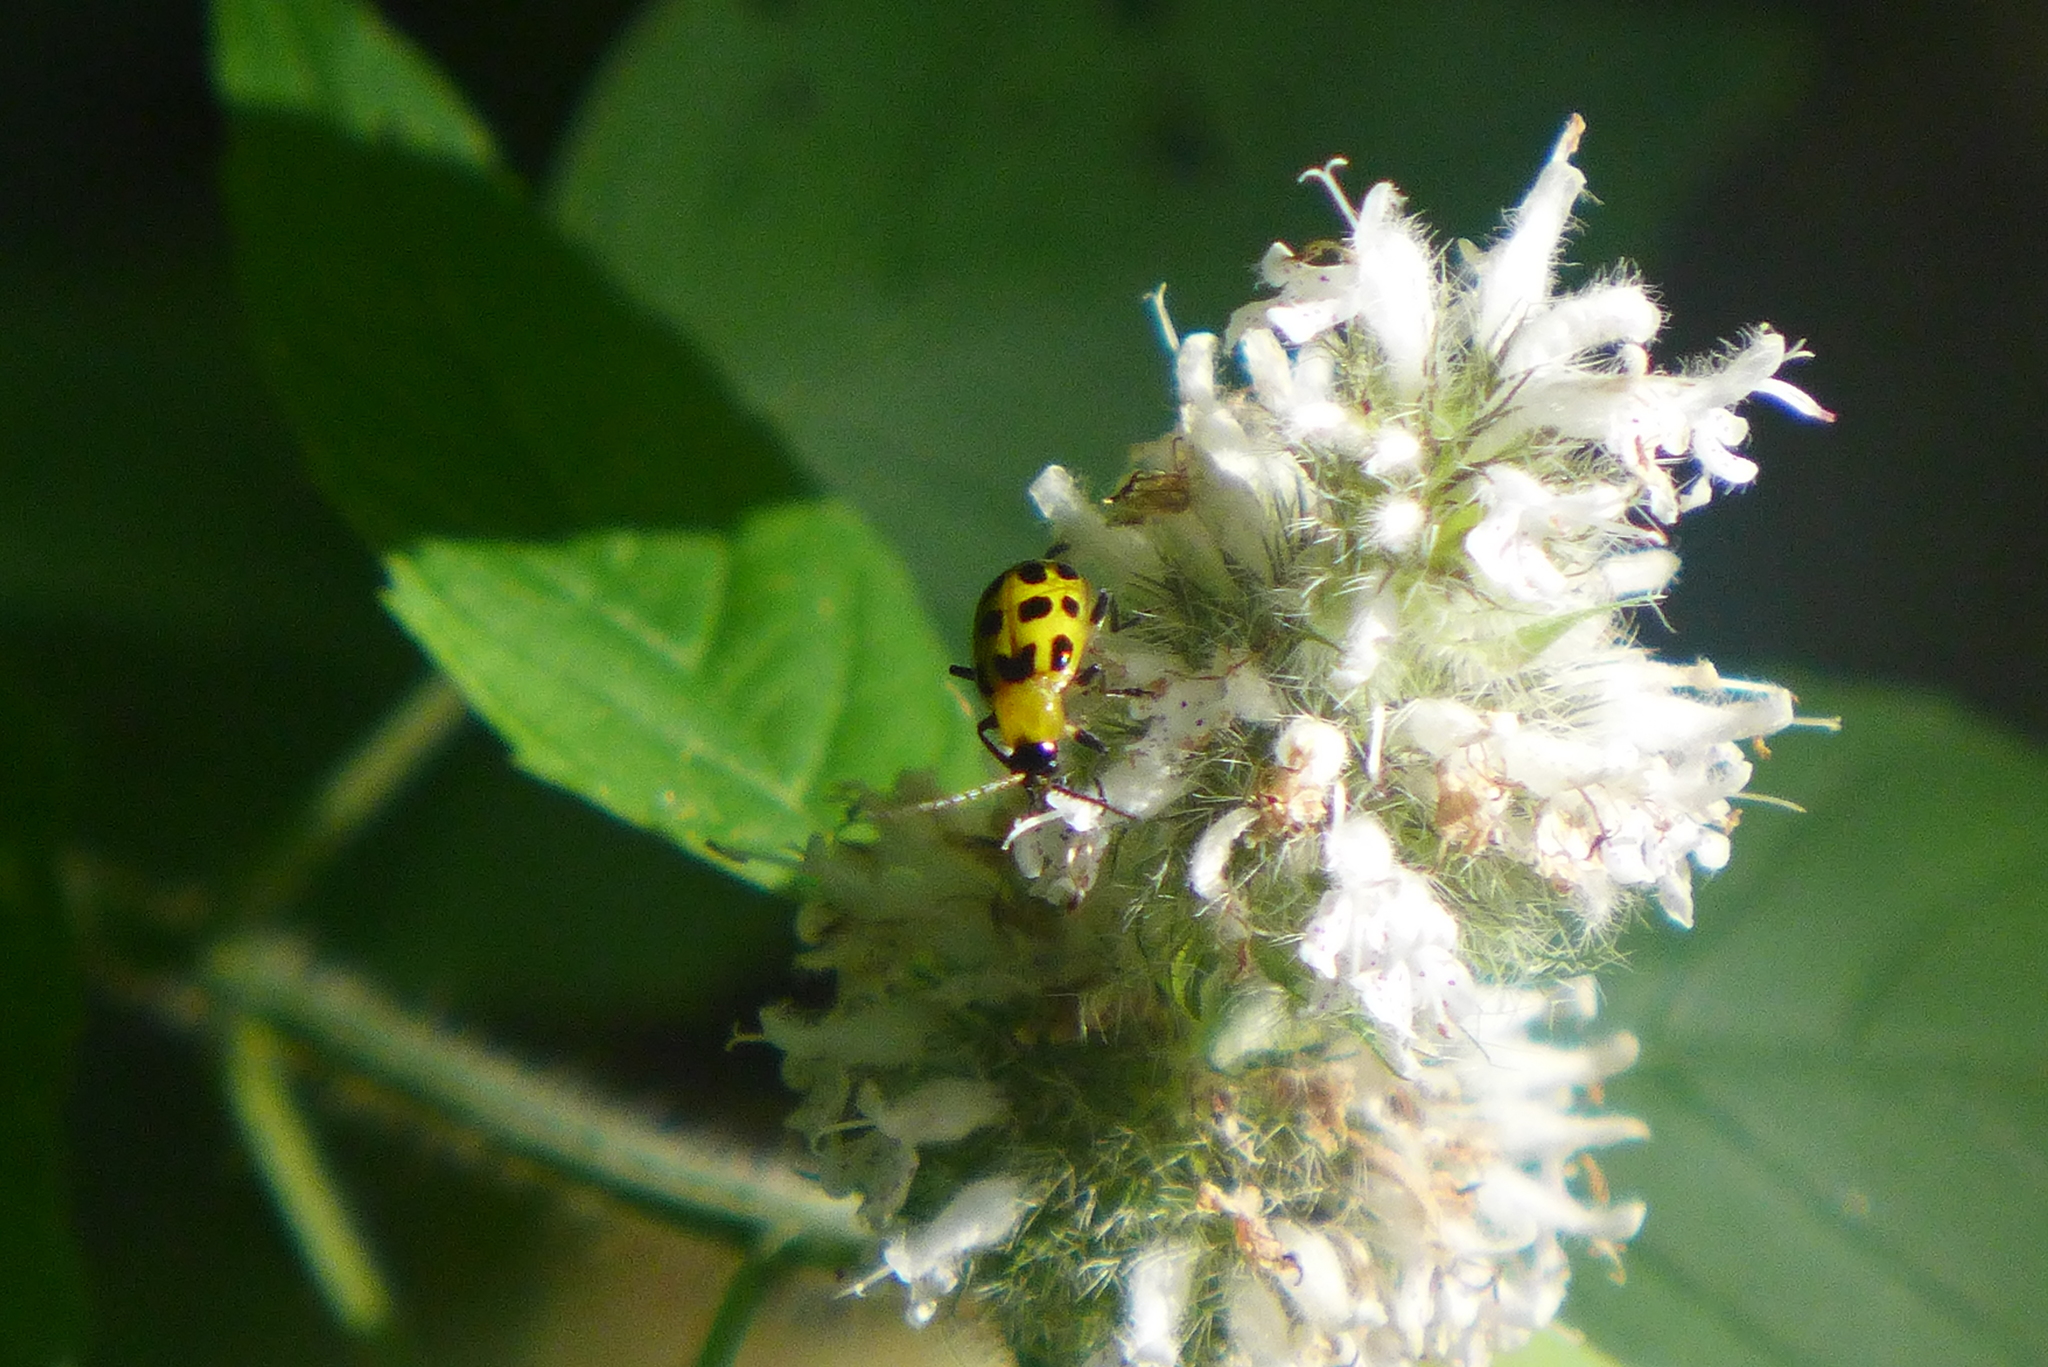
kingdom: Animalia
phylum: Arthropoda
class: Insecta
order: Coleoptera
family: Chrysomelidae
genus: Diabrotica
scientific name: Diabrotica undecimpunctata
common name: Spotted cucumber beetle
